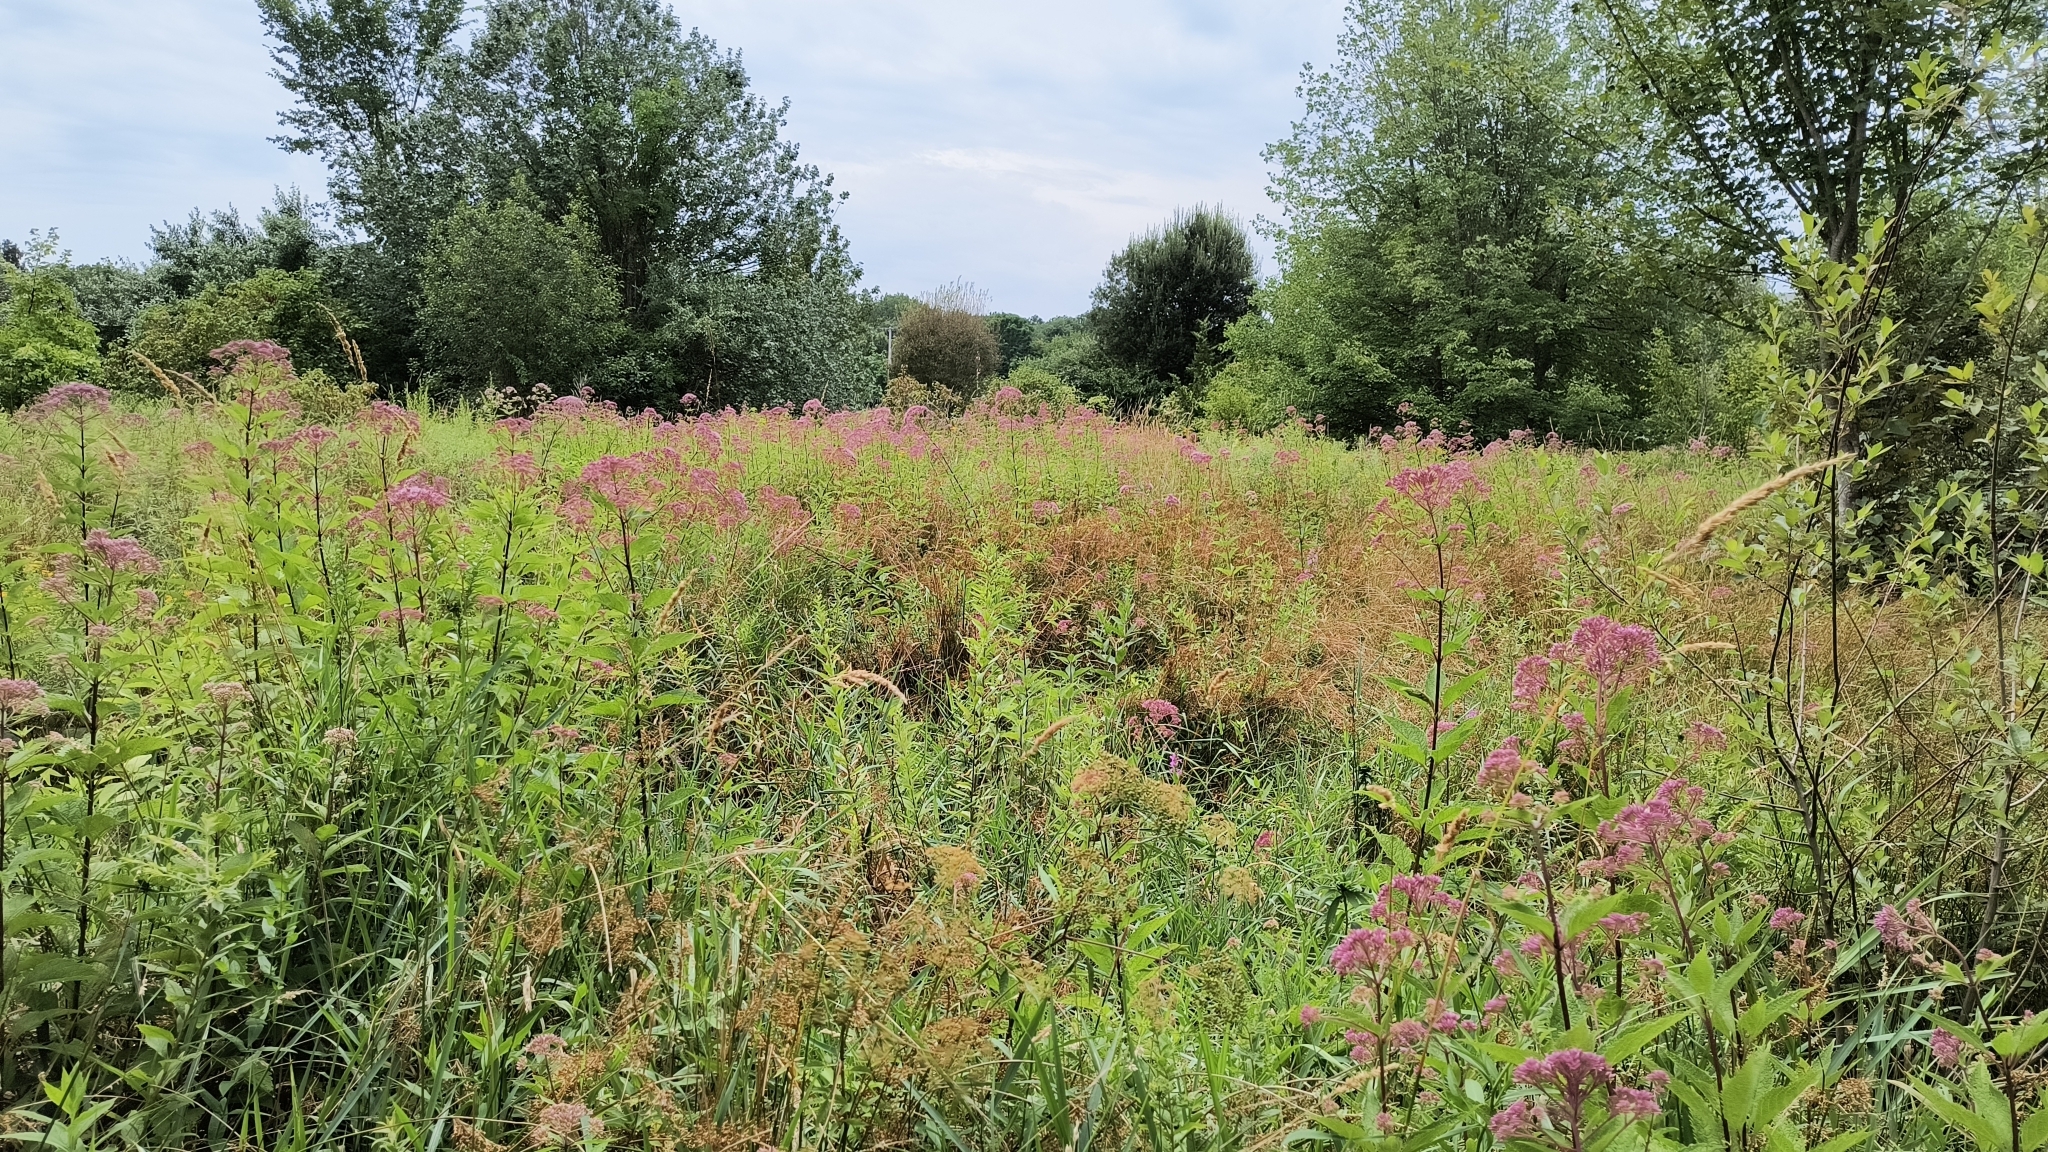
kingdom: Plantae
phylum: Tracheophyta
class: Magnoliopsida
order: Asterales
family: Asteraceae
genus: Eutrochium
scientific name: Eutrochium dubium
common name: Coastal plain joe pye weed
